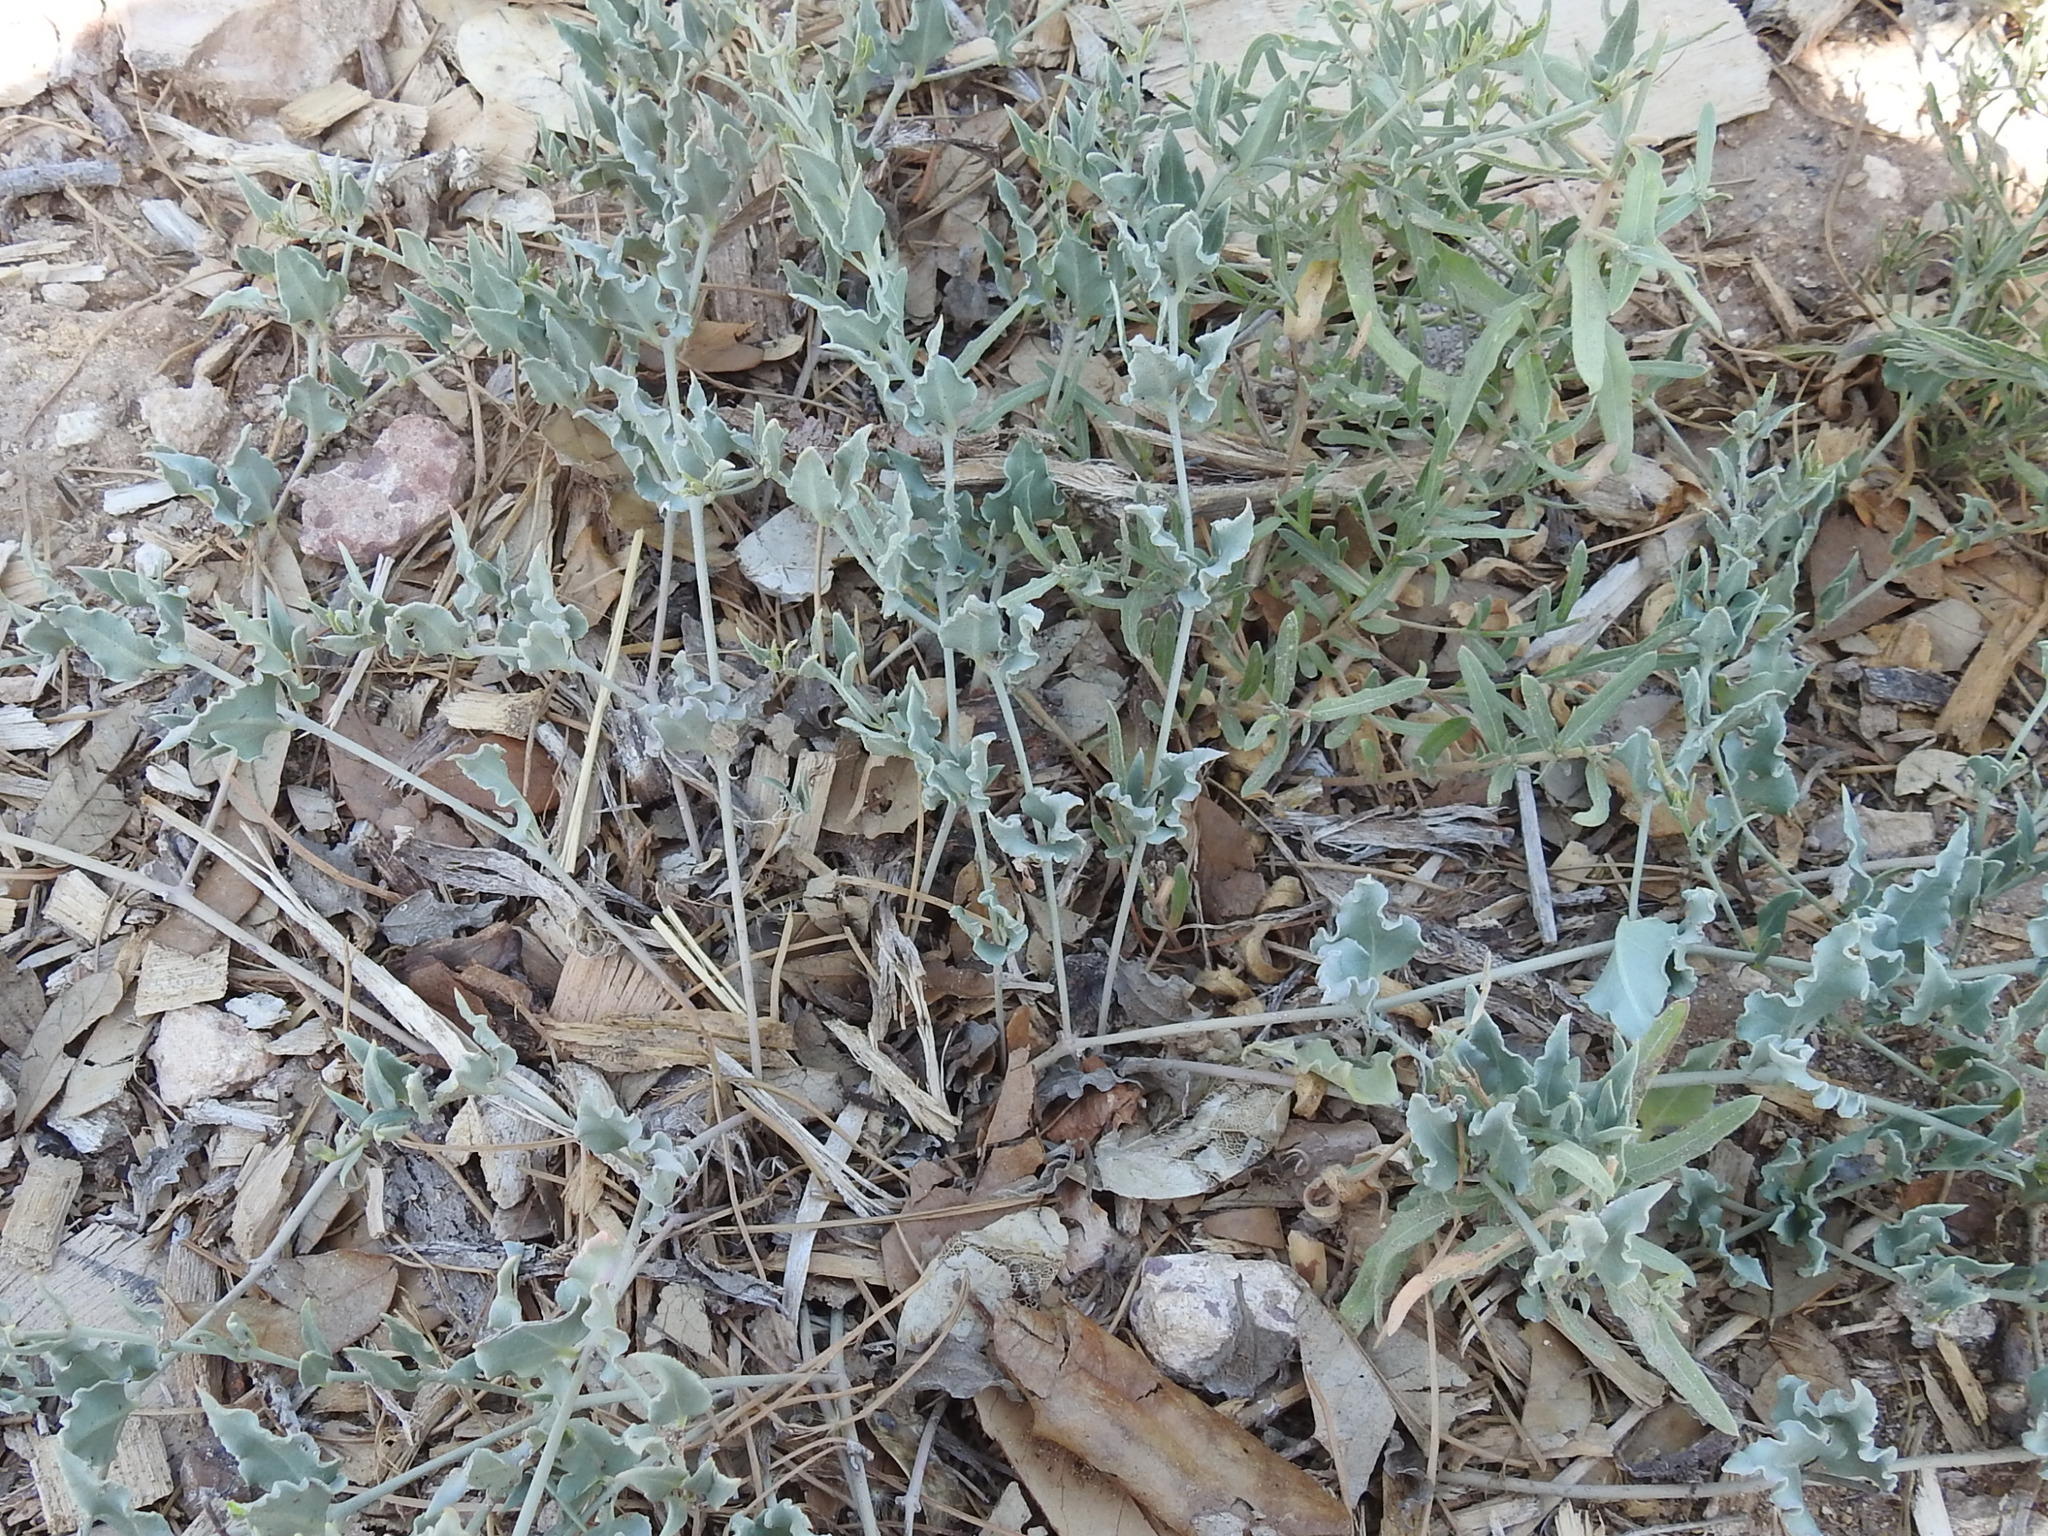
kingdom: Plantae
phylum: Tracheophyta
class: Magnoliopsida
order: Caryophyllales
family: Nyctaginaceae
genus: Acleisanthes
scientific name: Acleisanthes longiflora
